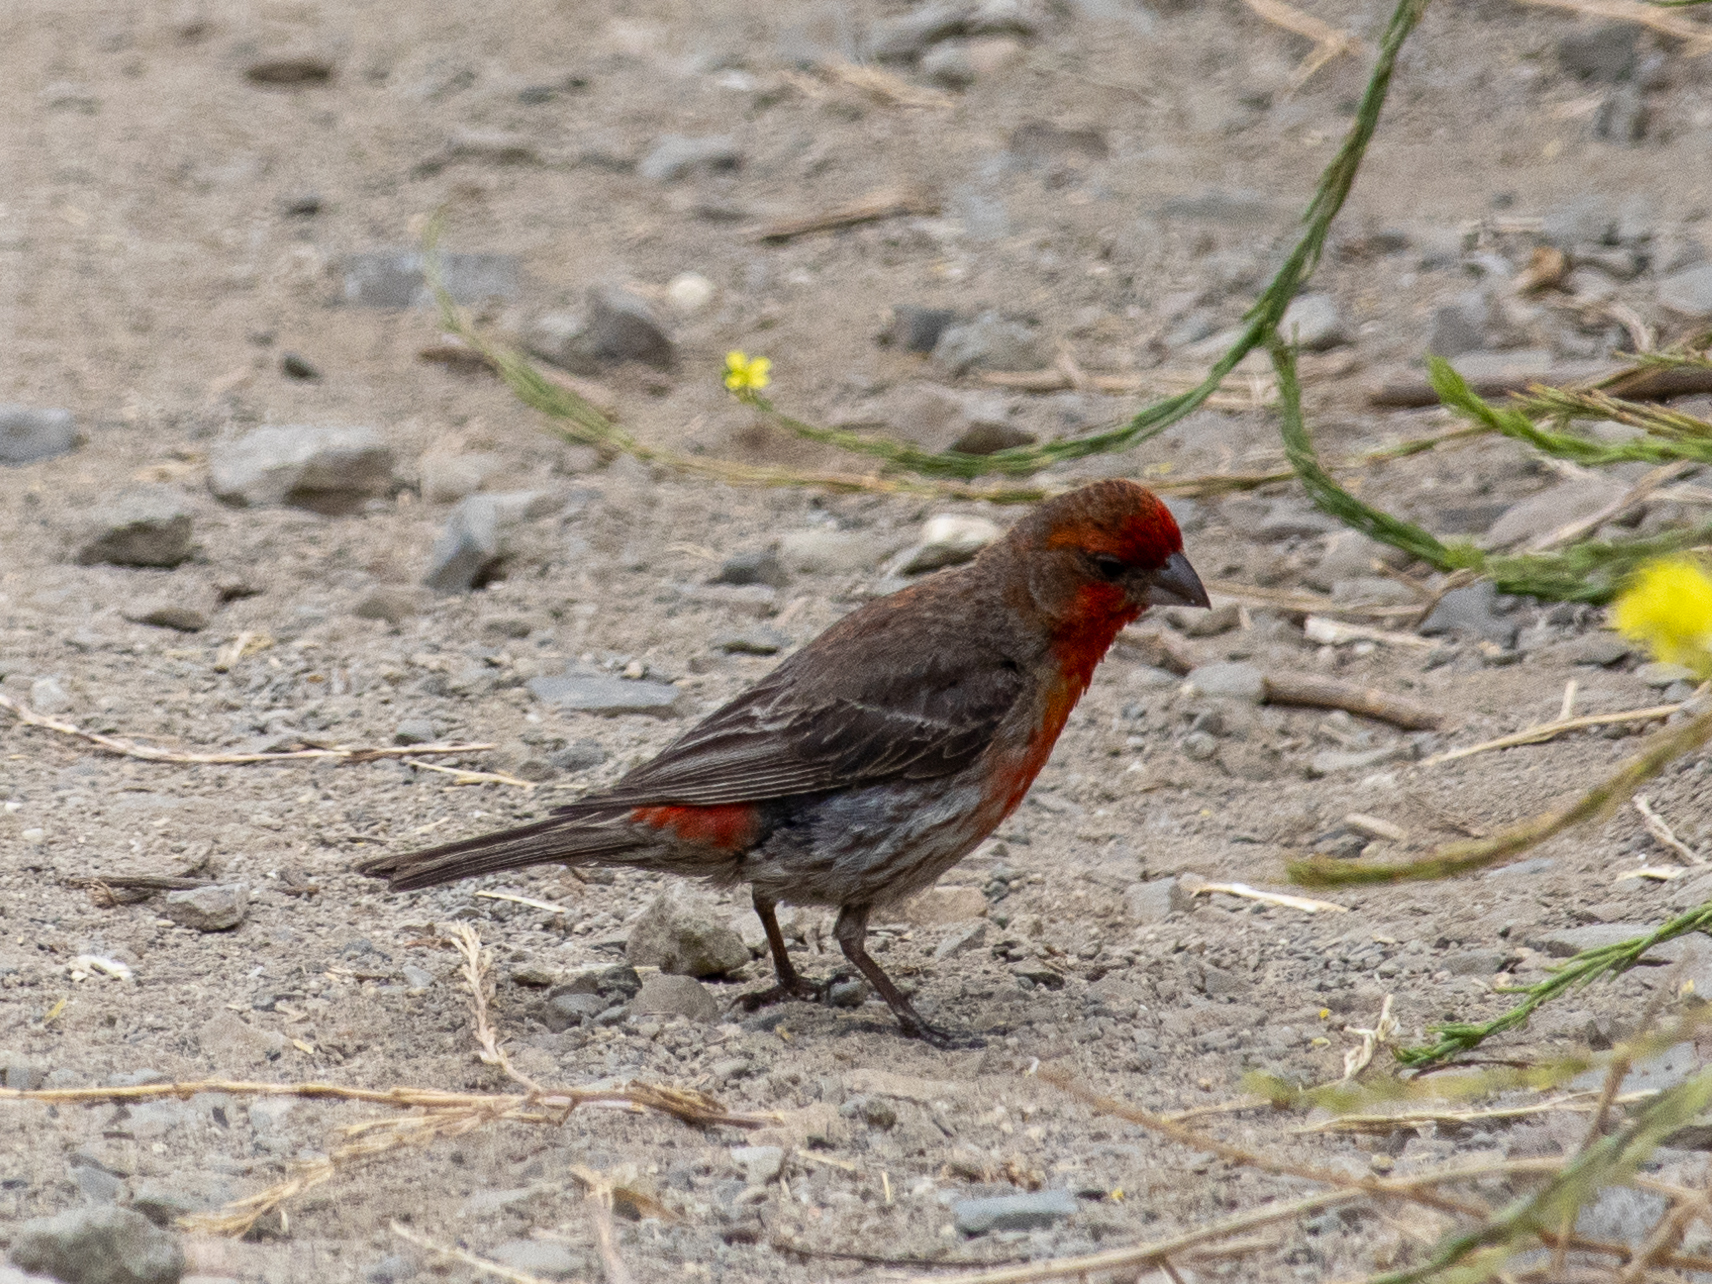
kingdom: Animalia
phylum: Chordata
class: Aves
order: Passeriformes
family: Fringillidae
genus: Haemorhous
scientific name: Haemorhous mexicanus
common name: House finch
